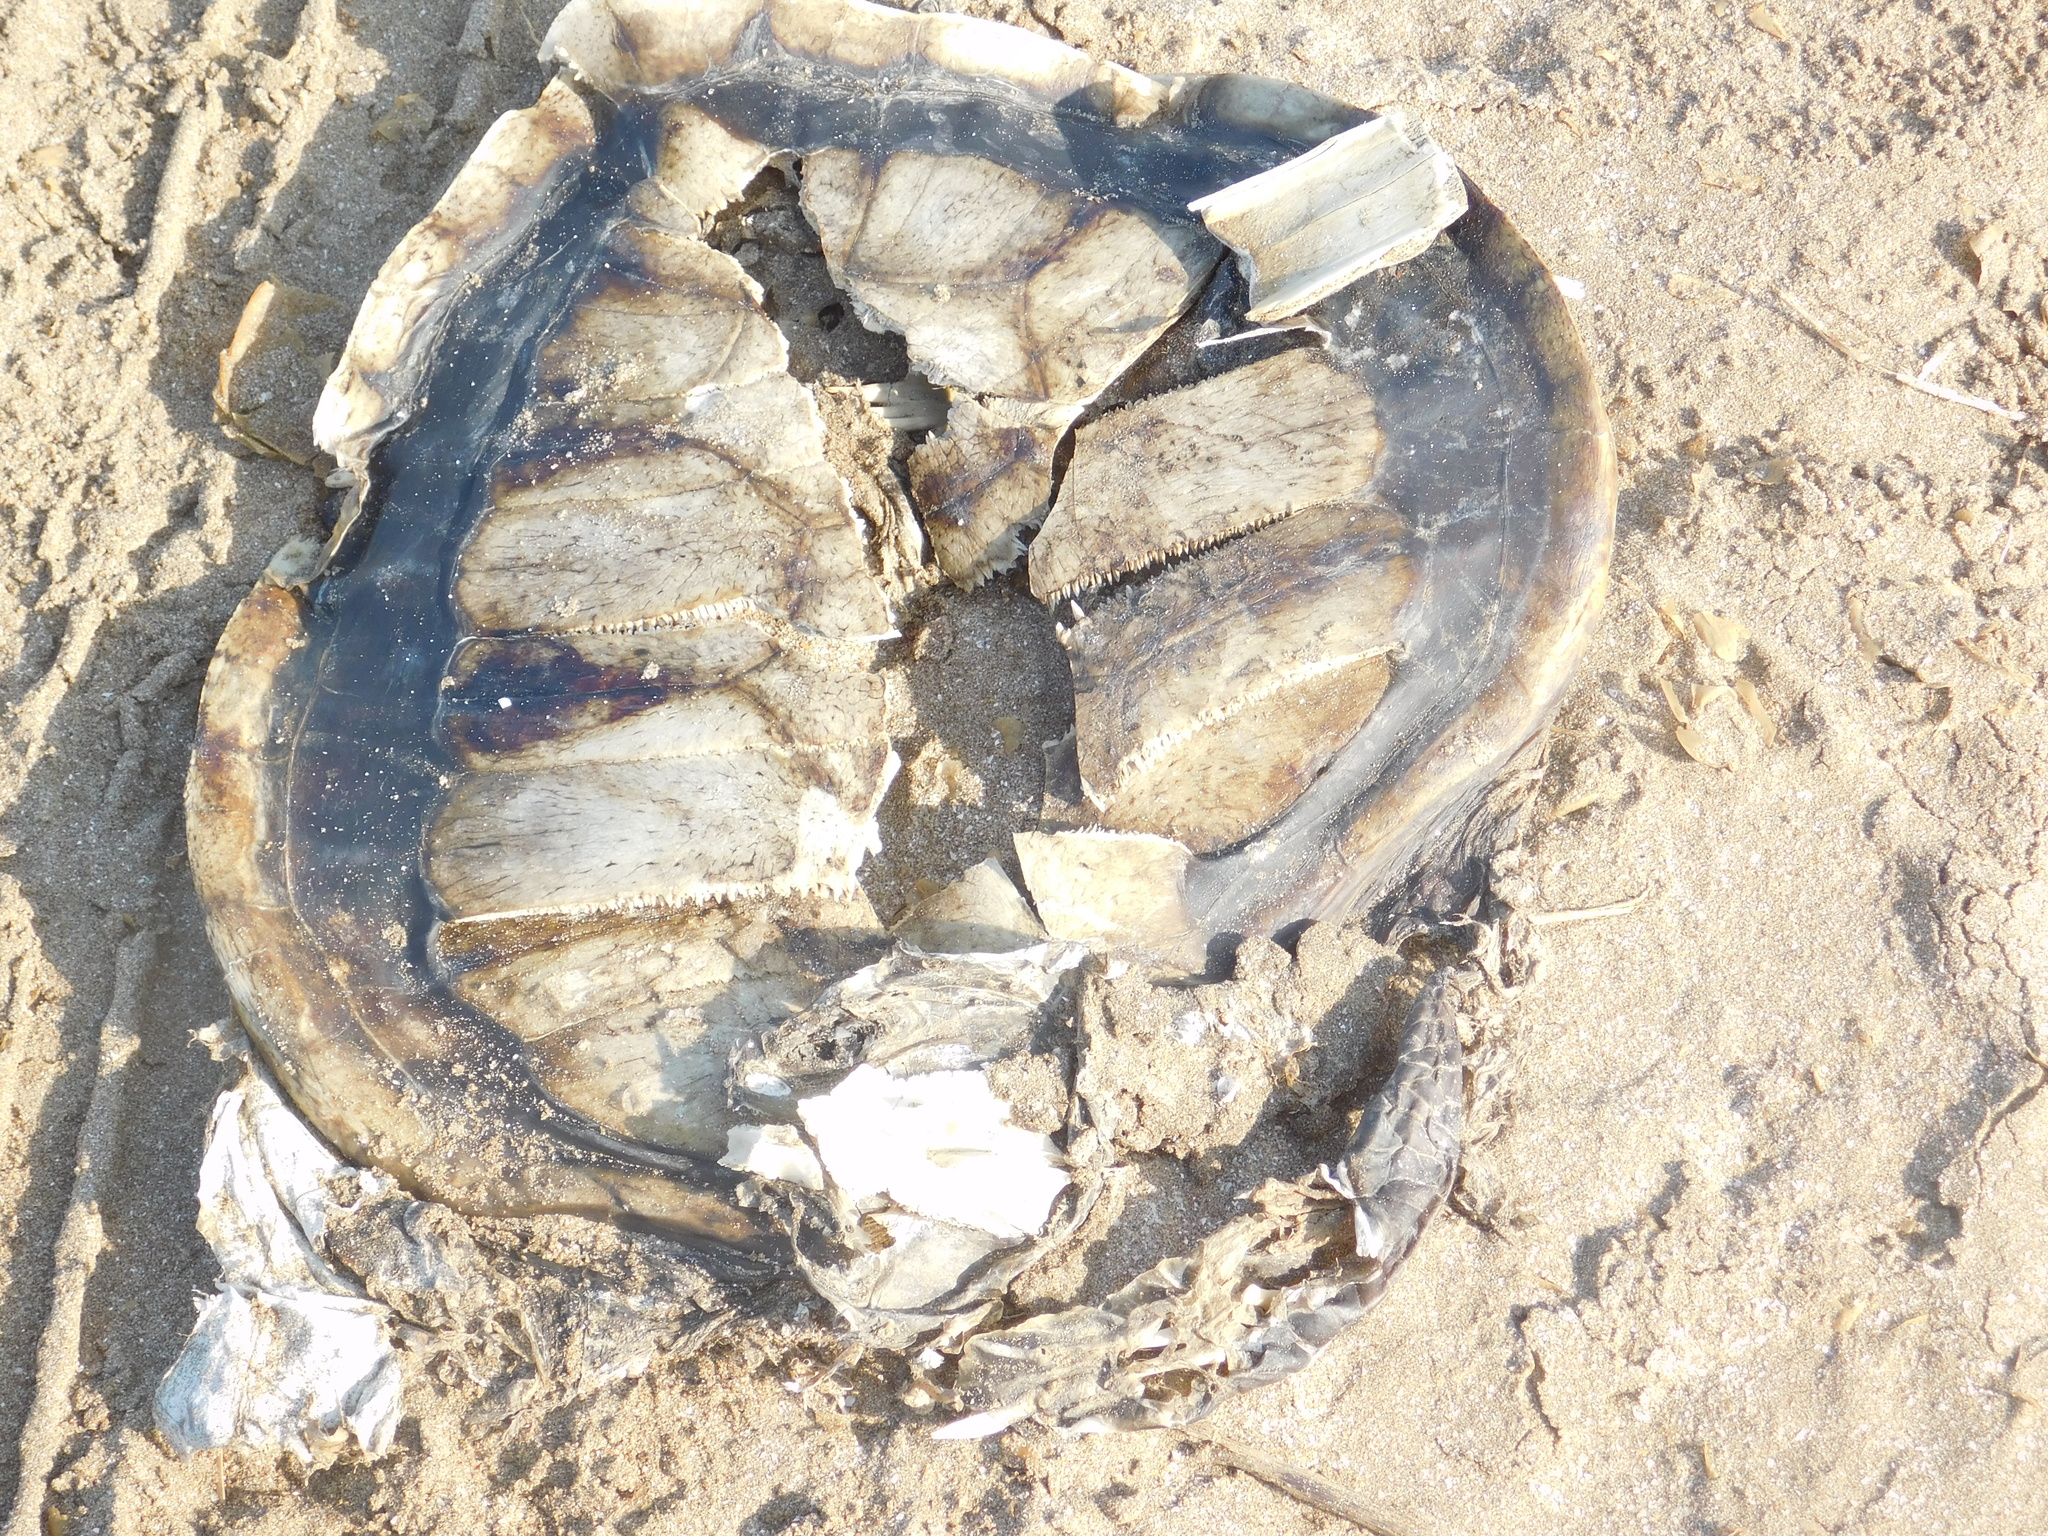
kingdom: Animalia
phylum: Chordata
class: Testudines
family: Cheloniidae
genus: Chelonia
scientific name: Chelonia mydas
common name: Green turtle
